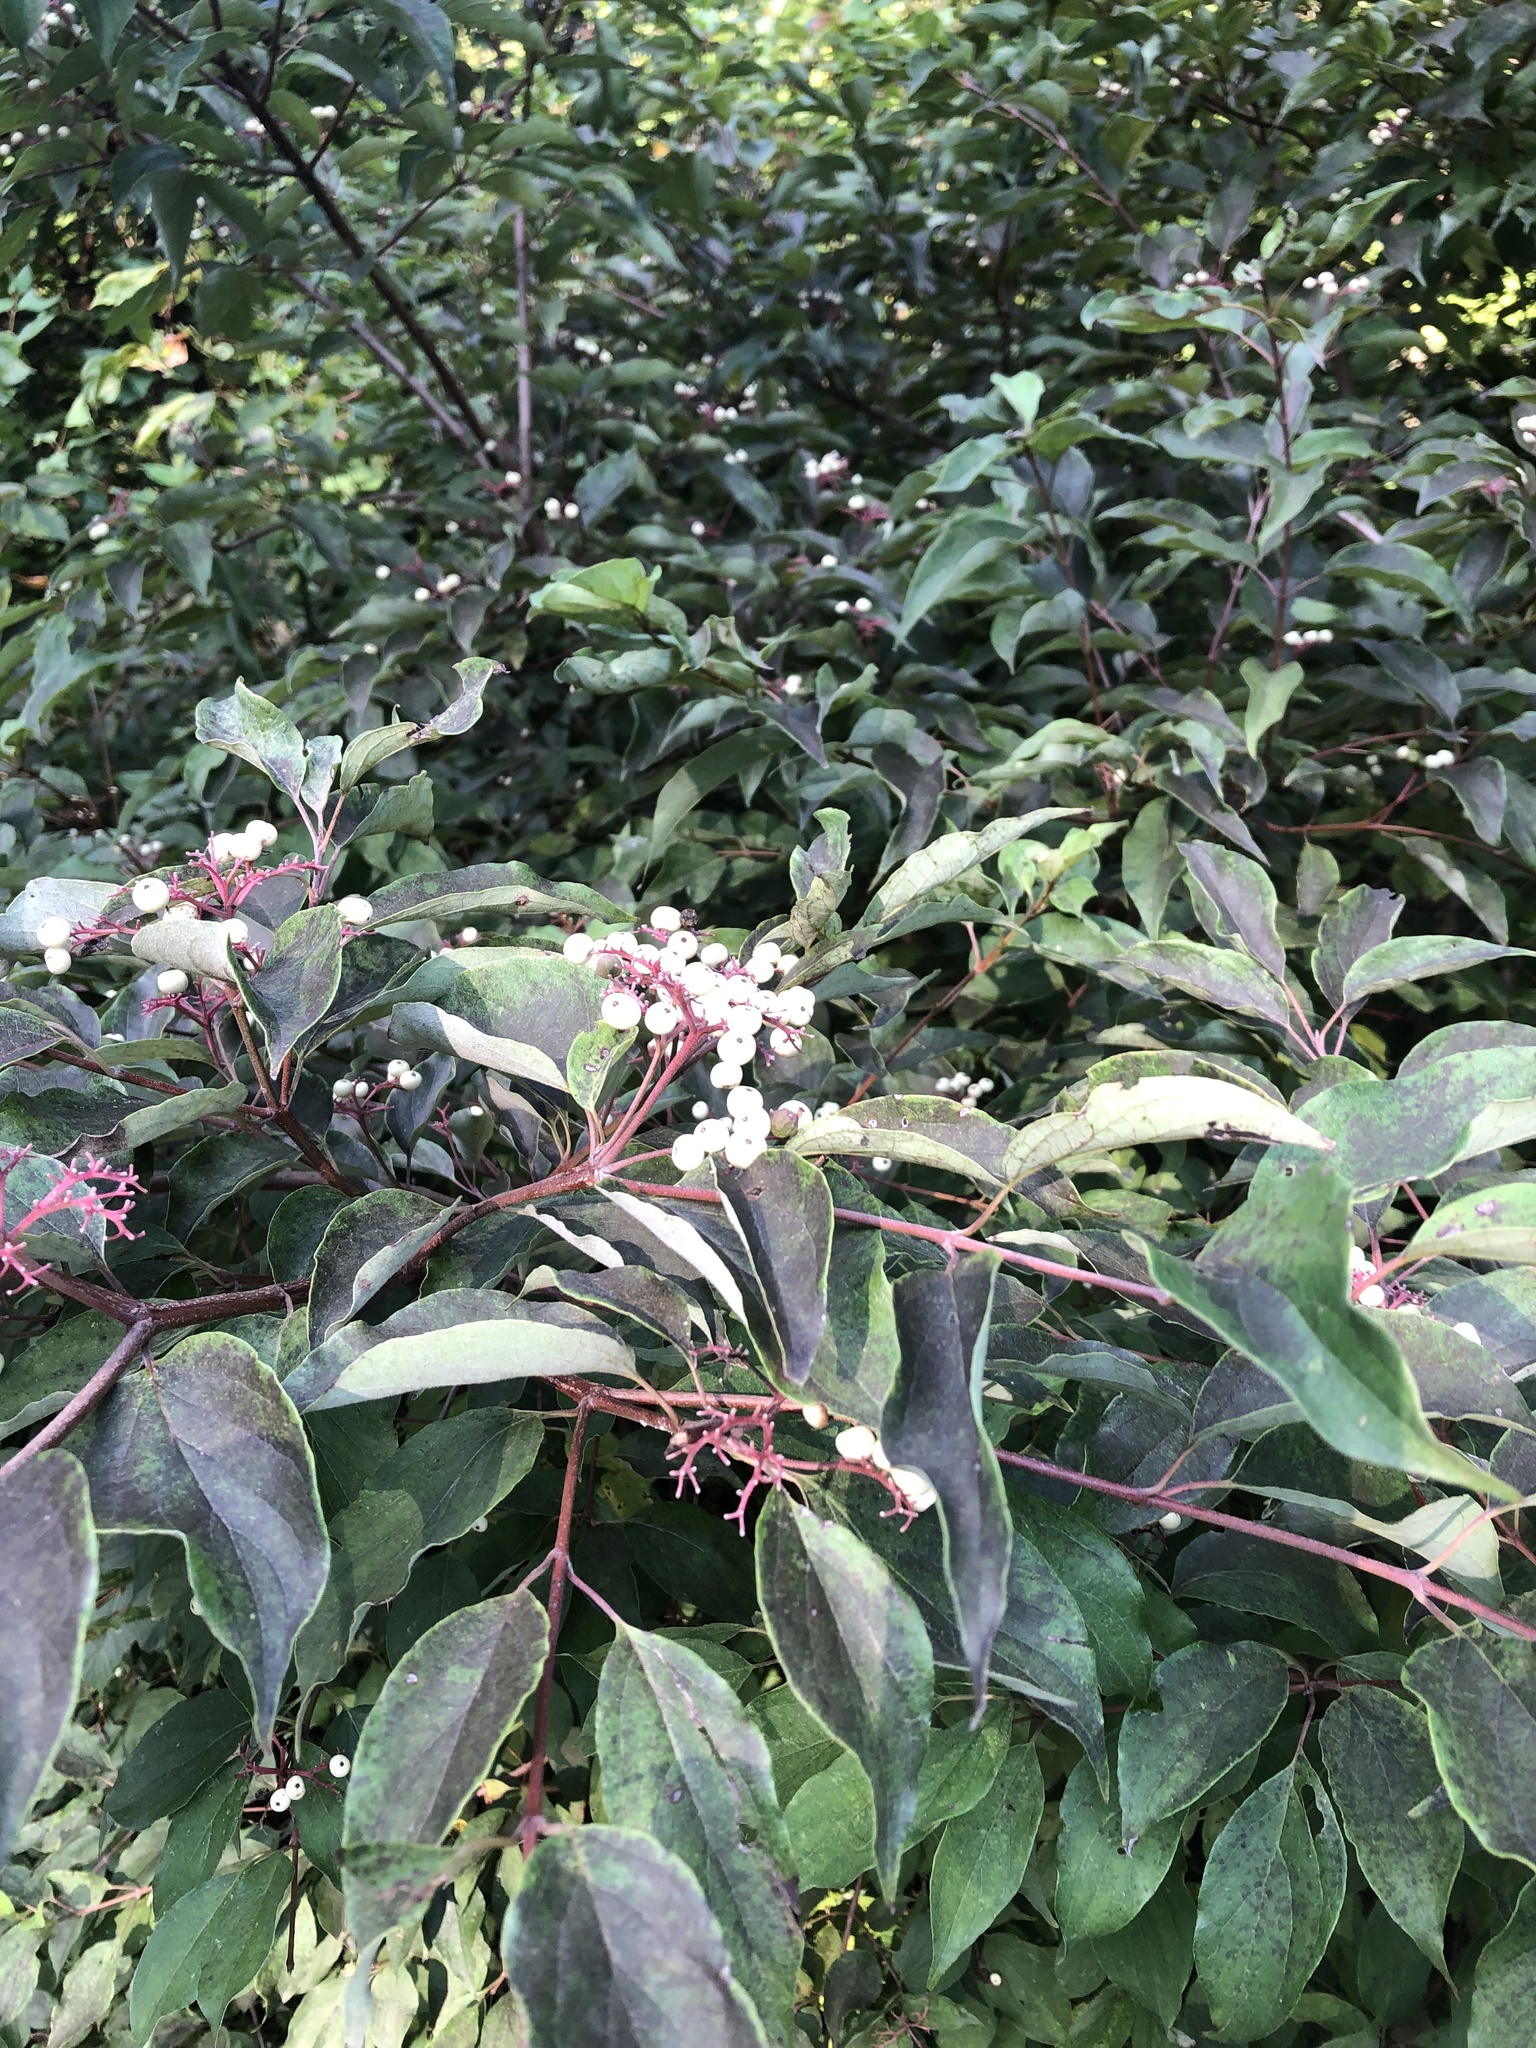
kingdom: Plantae
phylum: Tracheophyta
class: Magnoliopsida
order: Cornales
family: Cornaceae
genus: Cornus
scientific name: Cornus racemosa
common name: Panicled dogwood
